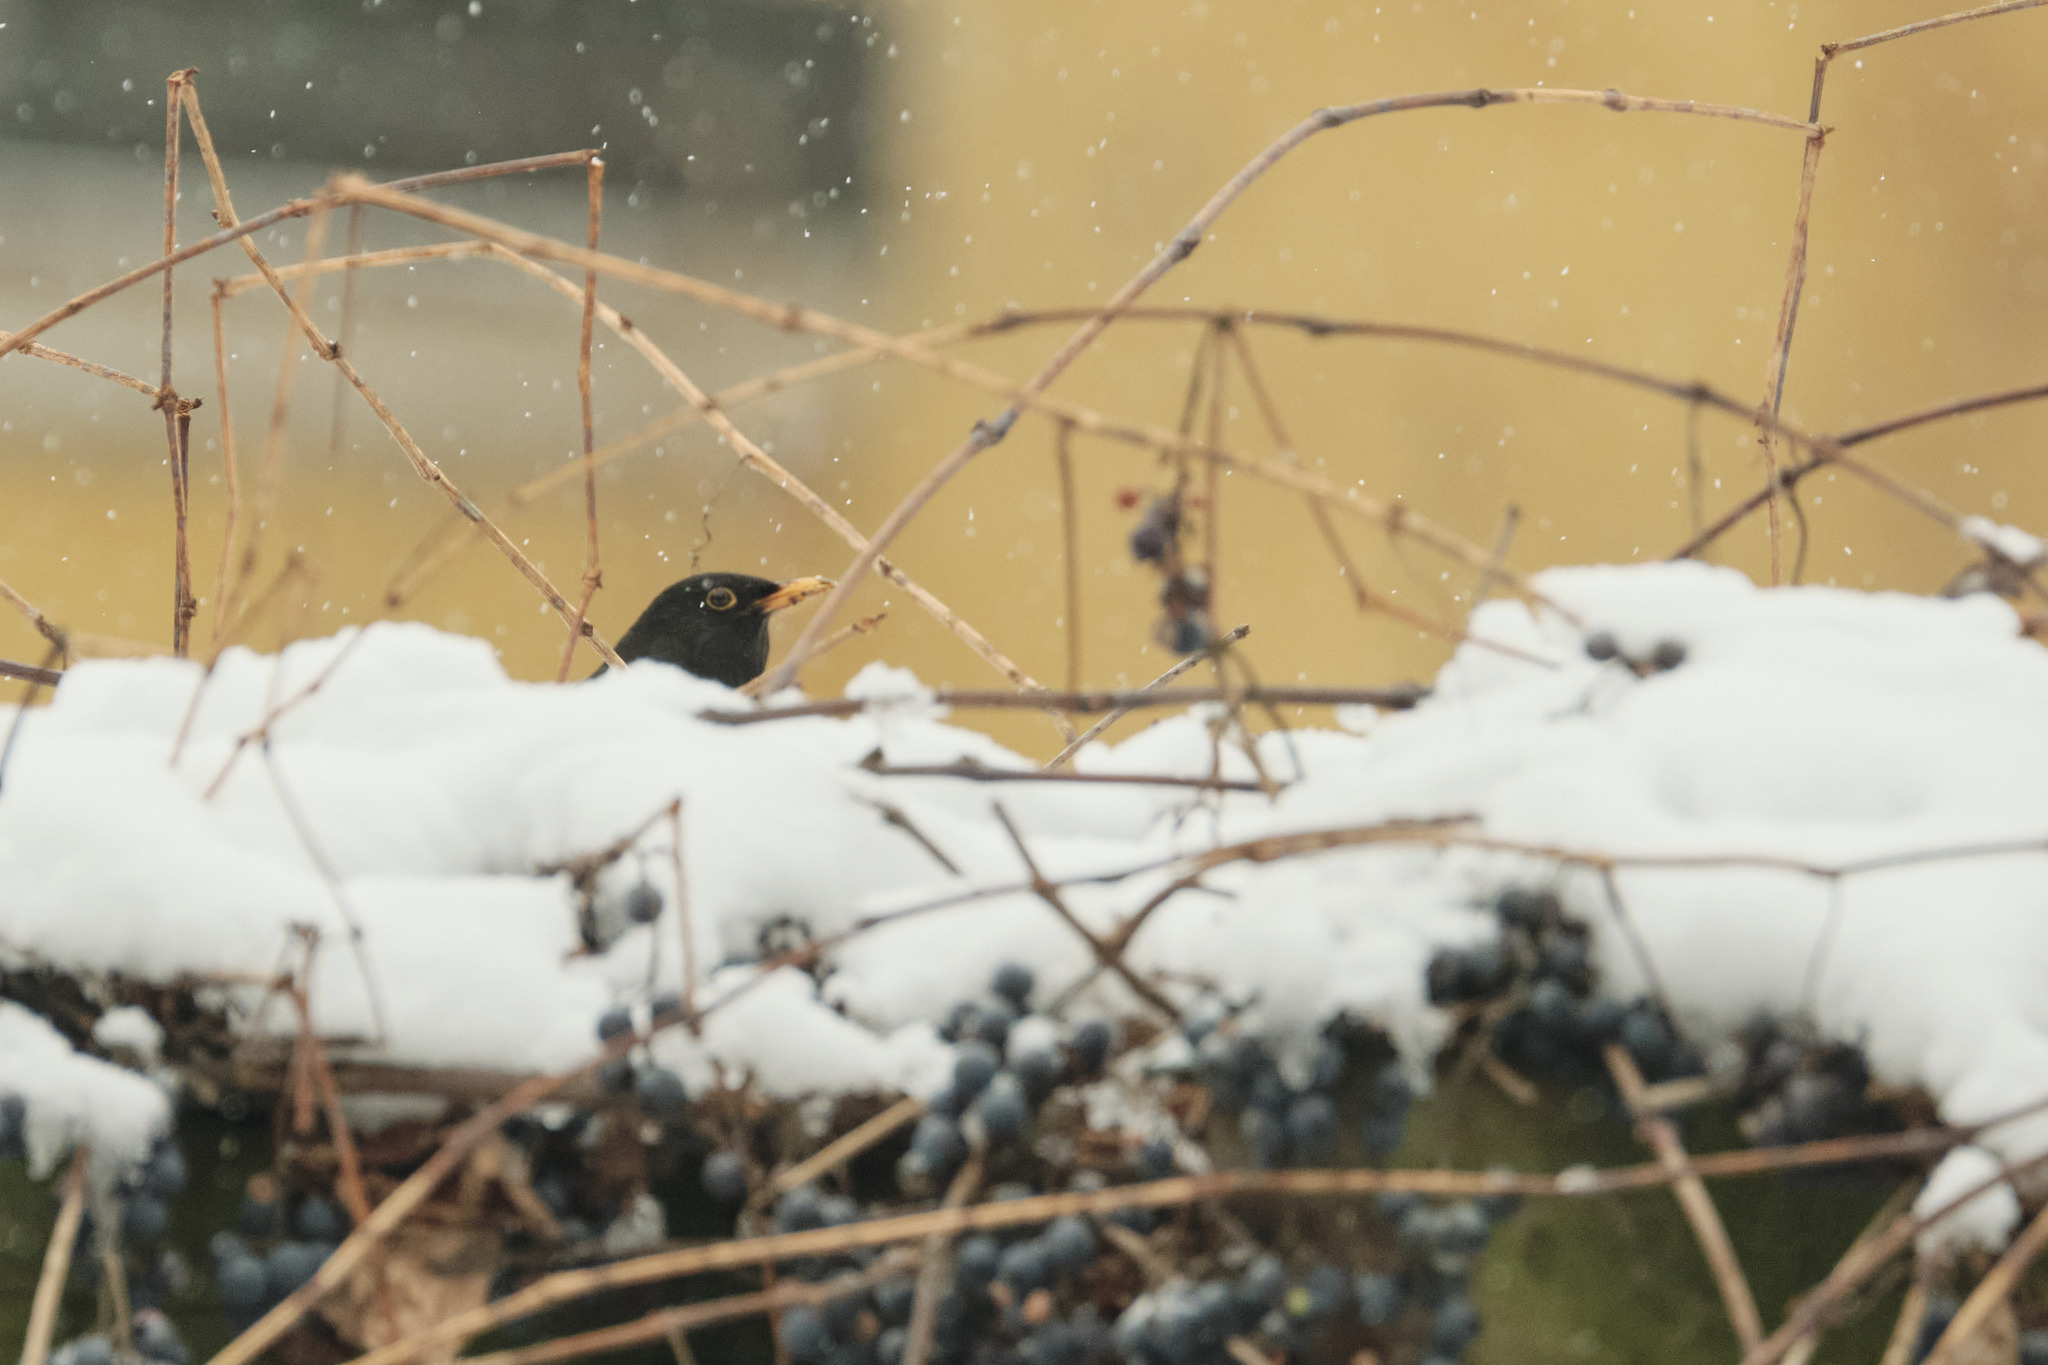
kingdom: Animalia
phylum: Chordata
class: Aves
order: Passeriformes
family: Turdidae
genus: Turdus
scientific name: Turdus merula
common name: Common blackbird
